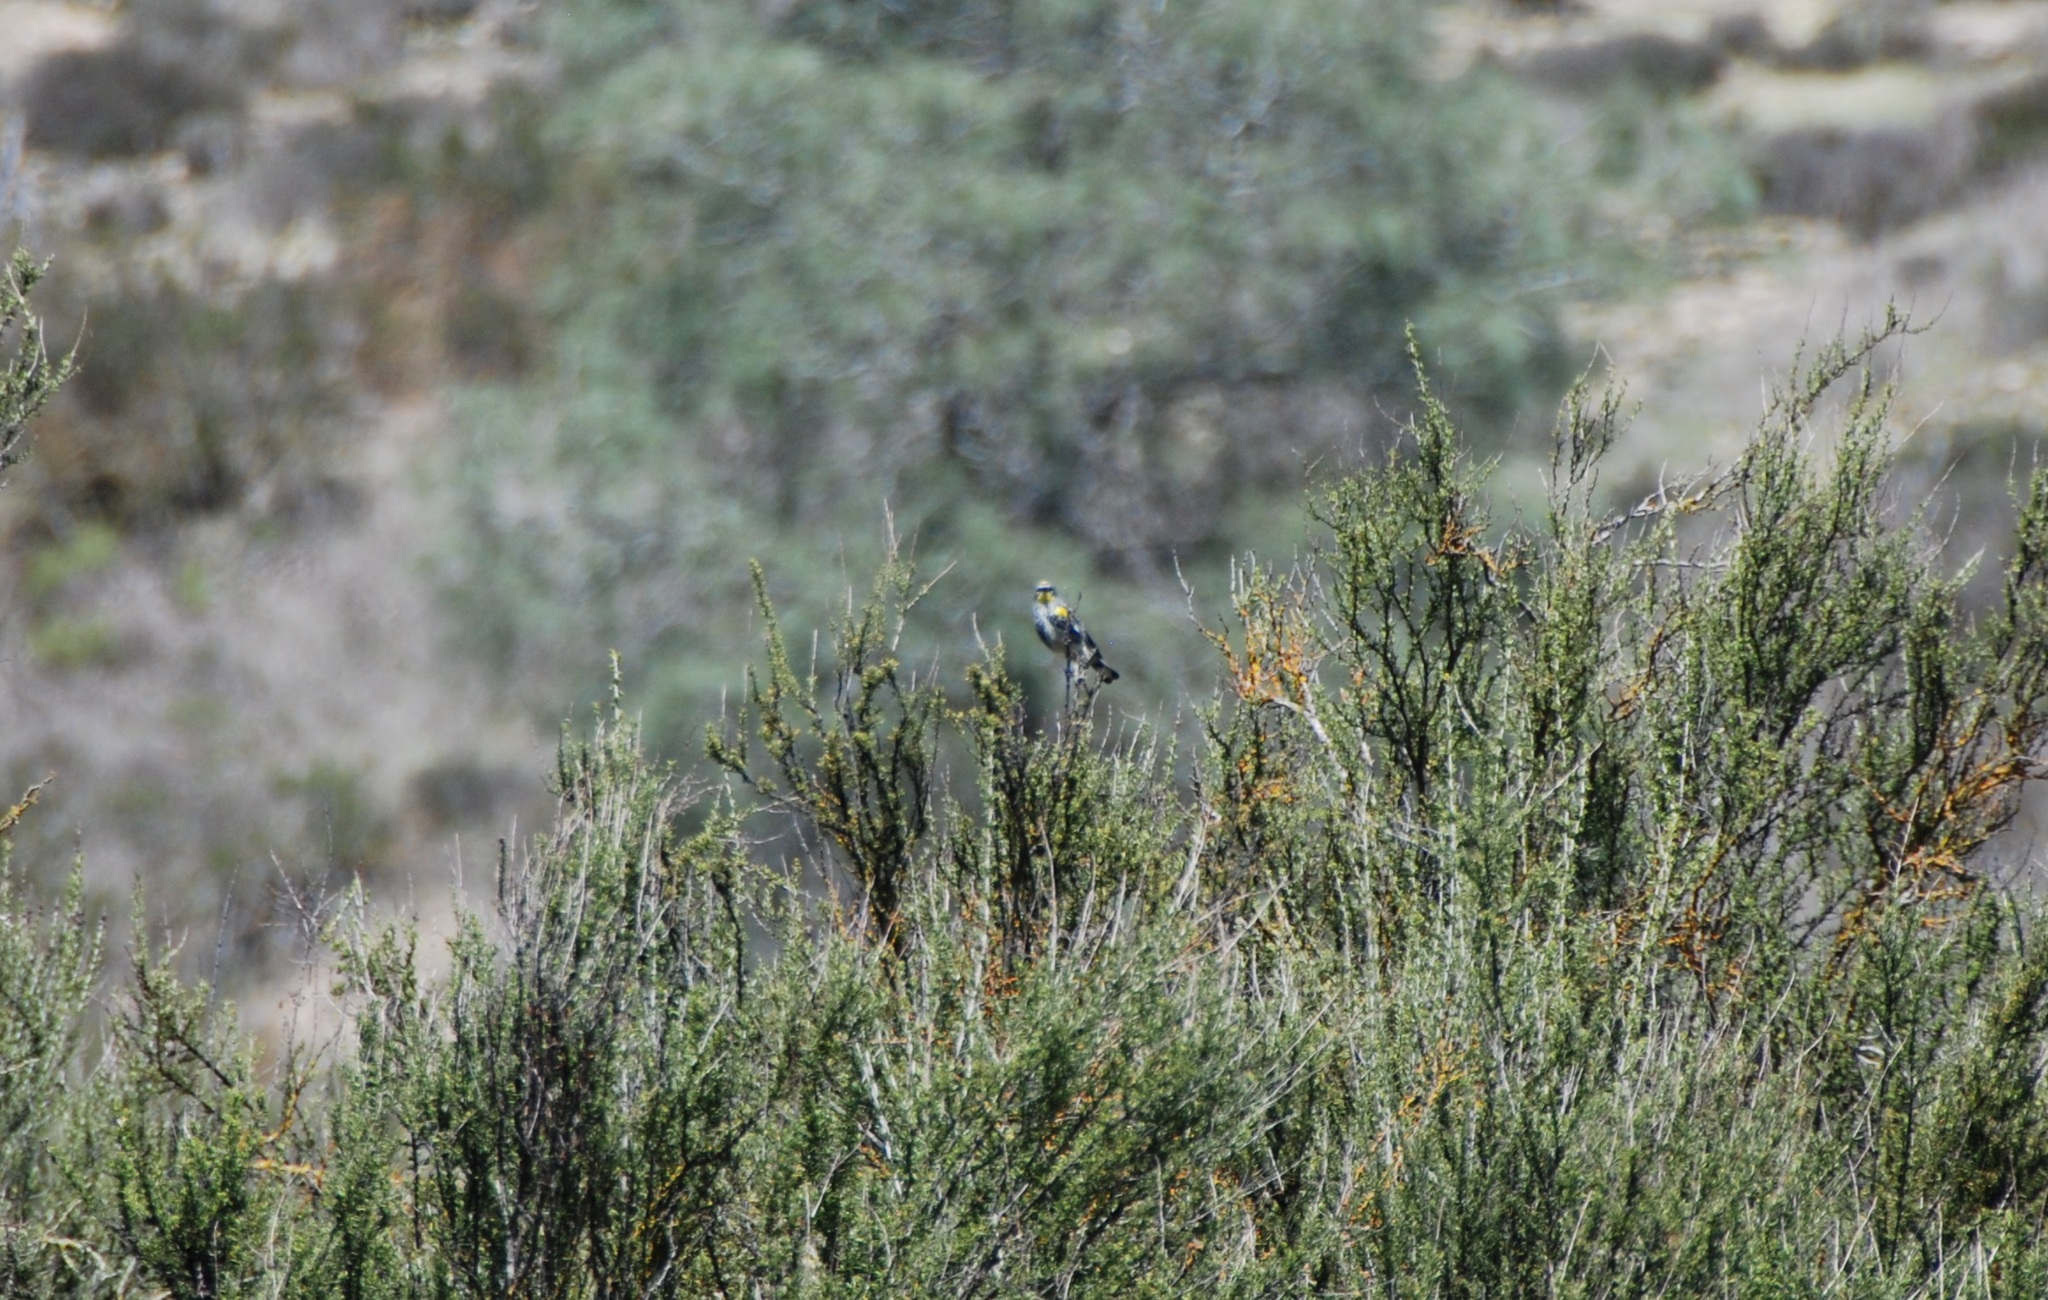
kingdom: Animalia
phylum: Chordata
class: Aves
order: Passeriformes
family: Parulidae
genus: Setophaga
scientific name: Setophaga coronata
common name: Myrtle warbler
